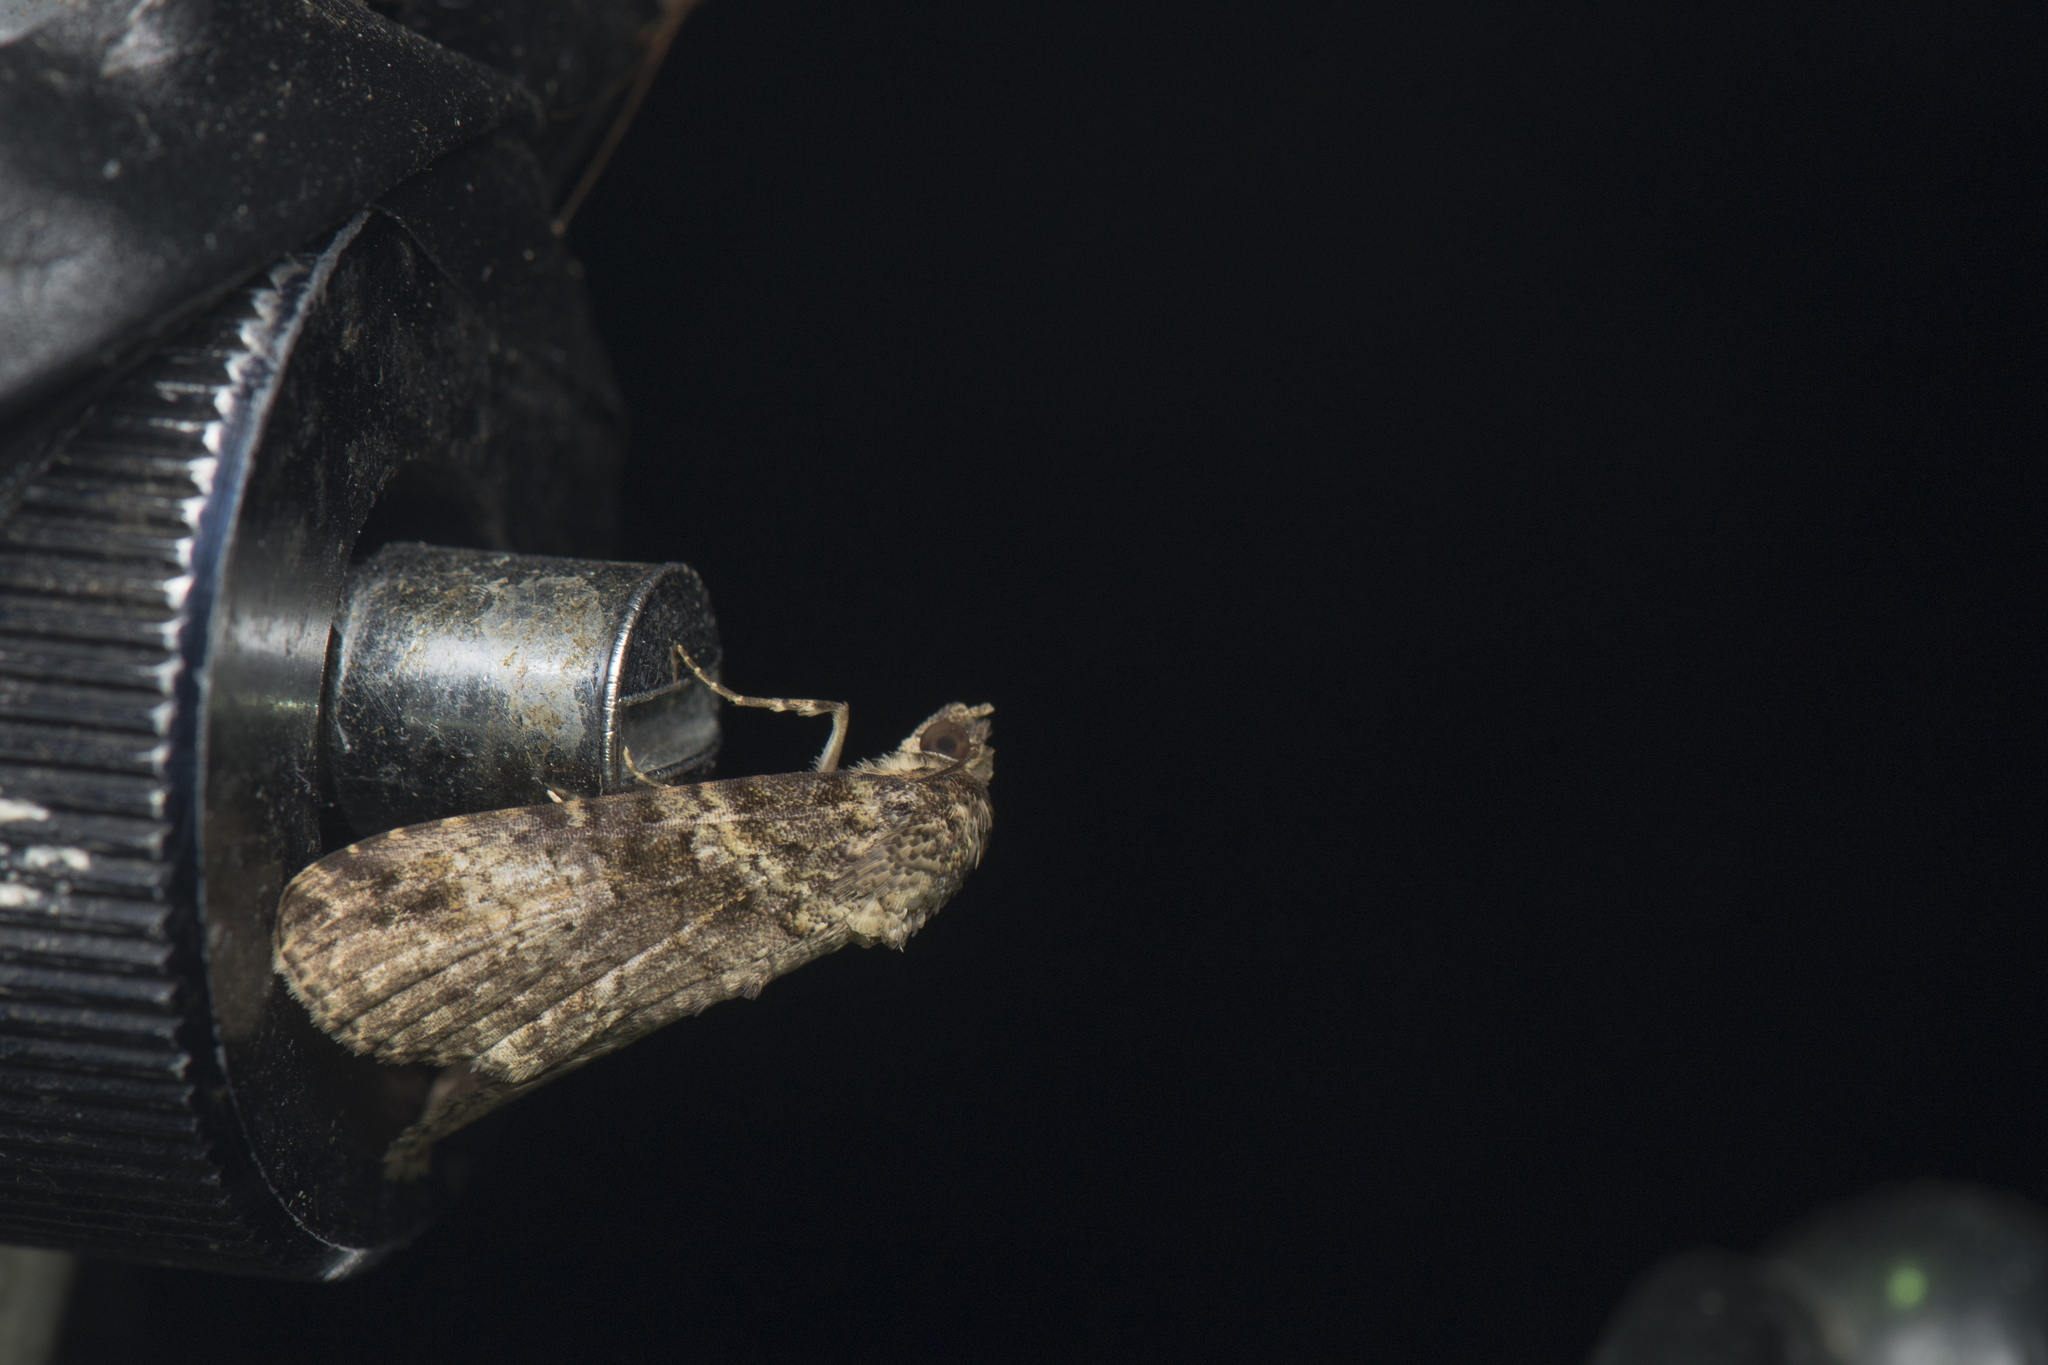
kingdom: Animalia
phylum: Arthropoda
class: Insecta
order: Lepidoptera
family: Euteliidae
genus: Sigmuncus
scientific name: Sigmuncus albigrisea
